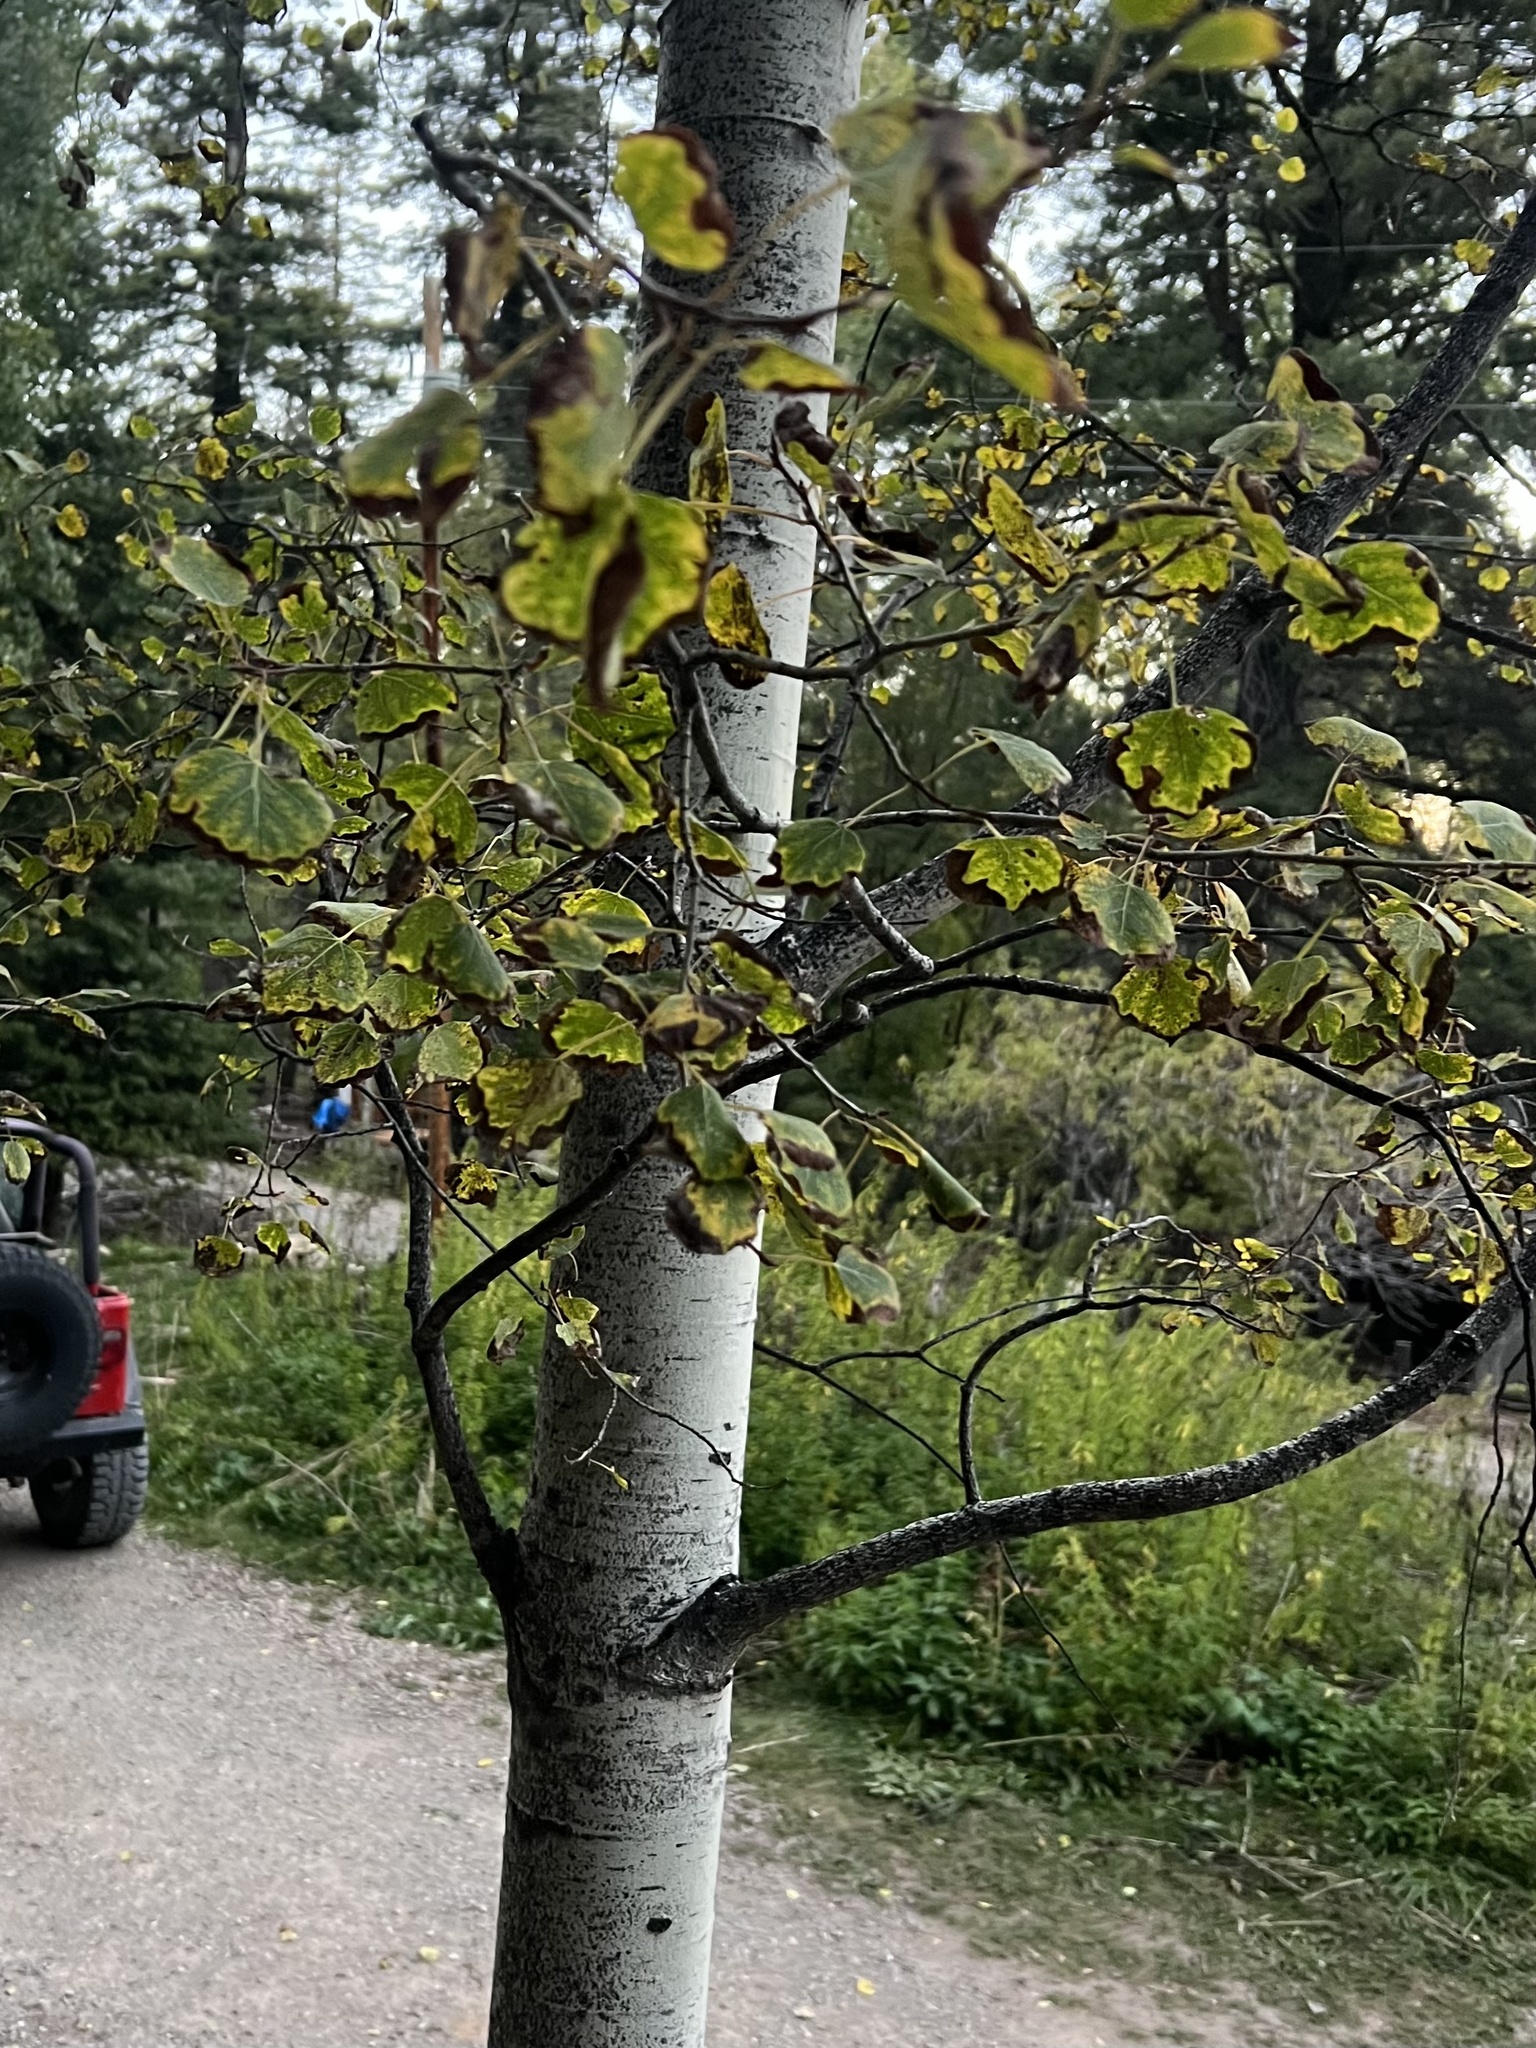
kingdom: Plantae
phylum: Tracheophyta
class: Magnoliopsida
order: Malpighiales
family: Salicaceae
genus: Populus
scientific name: Populus tremuloides
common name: Quaking aspen
